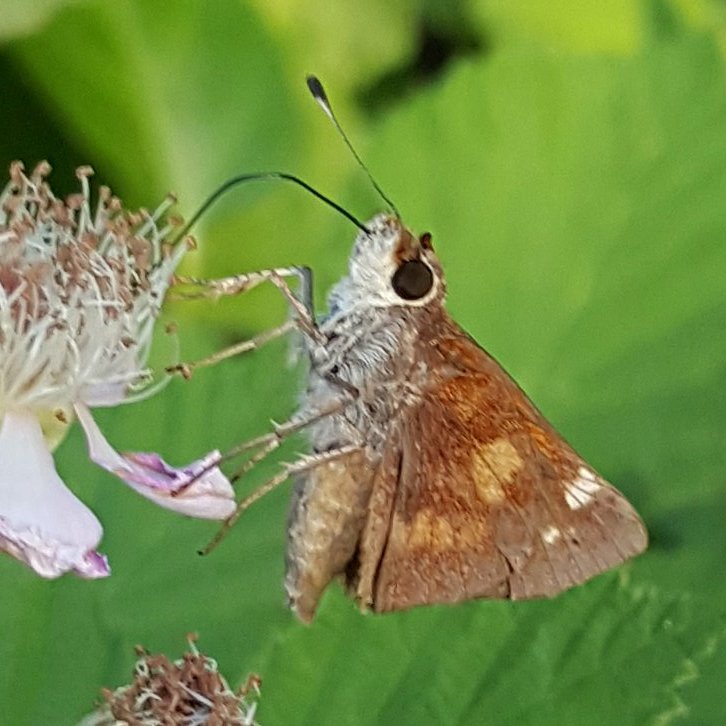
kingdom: Animalia
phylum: Arthropoda
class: Insecta
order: Lepidoptera
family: Hesperiidae
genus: Lon
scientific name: Lon melane
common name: Umber skipper
